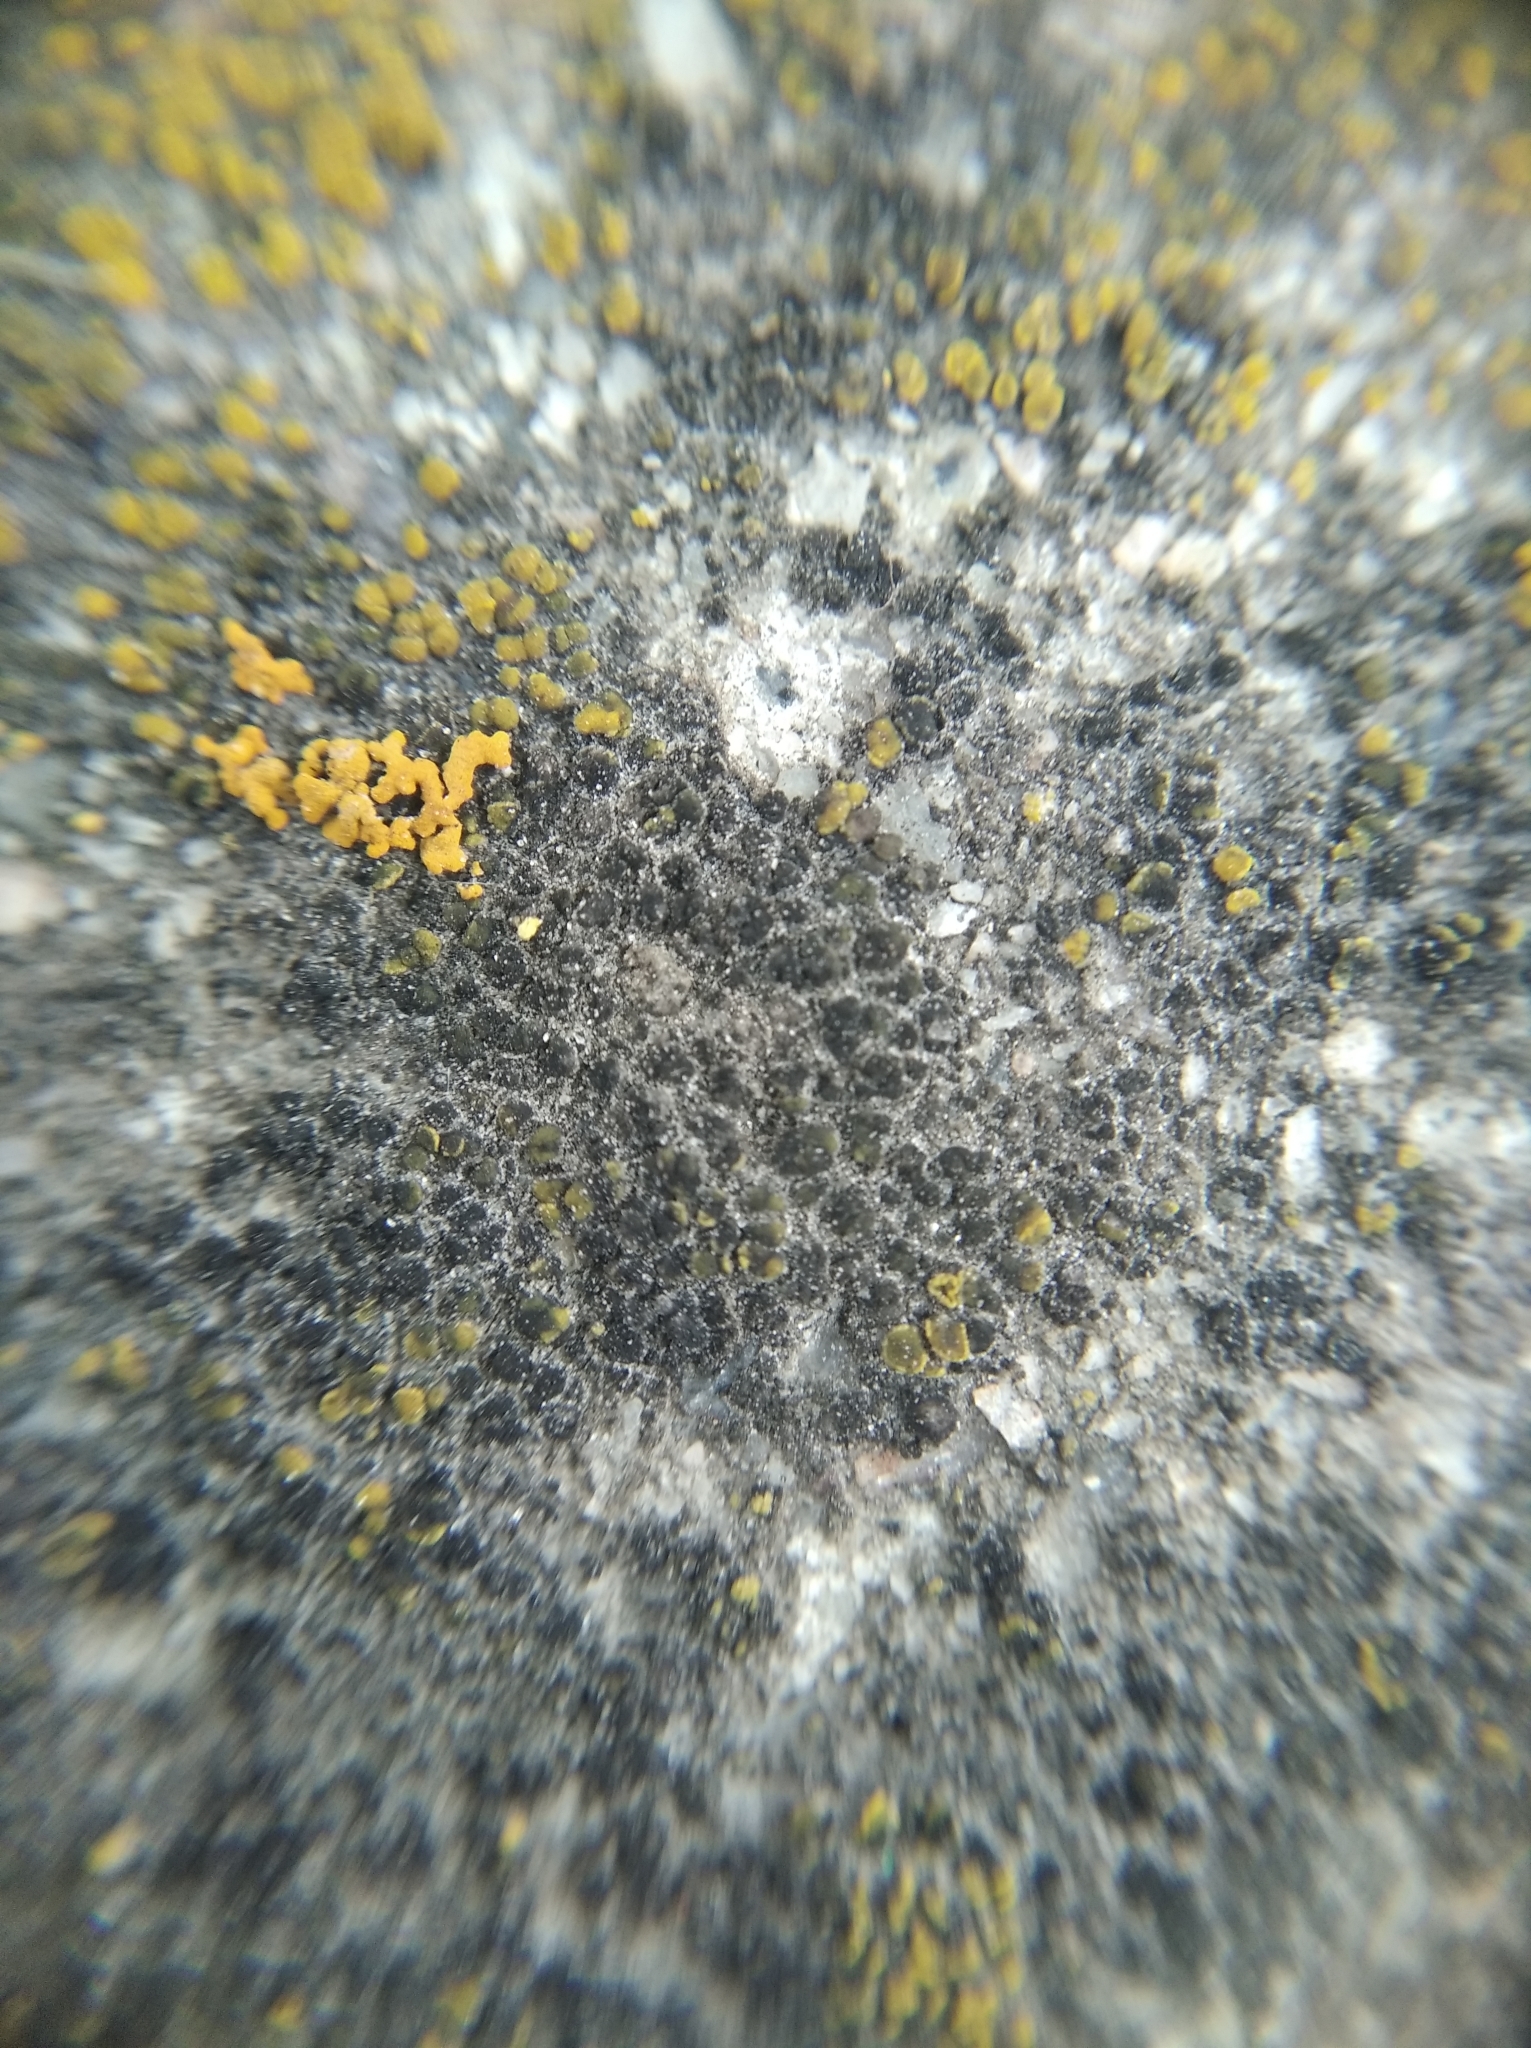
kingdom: Fungi
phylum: Ascomycota
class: Candelariomycetes
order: Candelariales
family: Candelariaceae
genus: Candelariella
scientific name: Candelariella aurella
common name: Hidden goldspeck lichen
